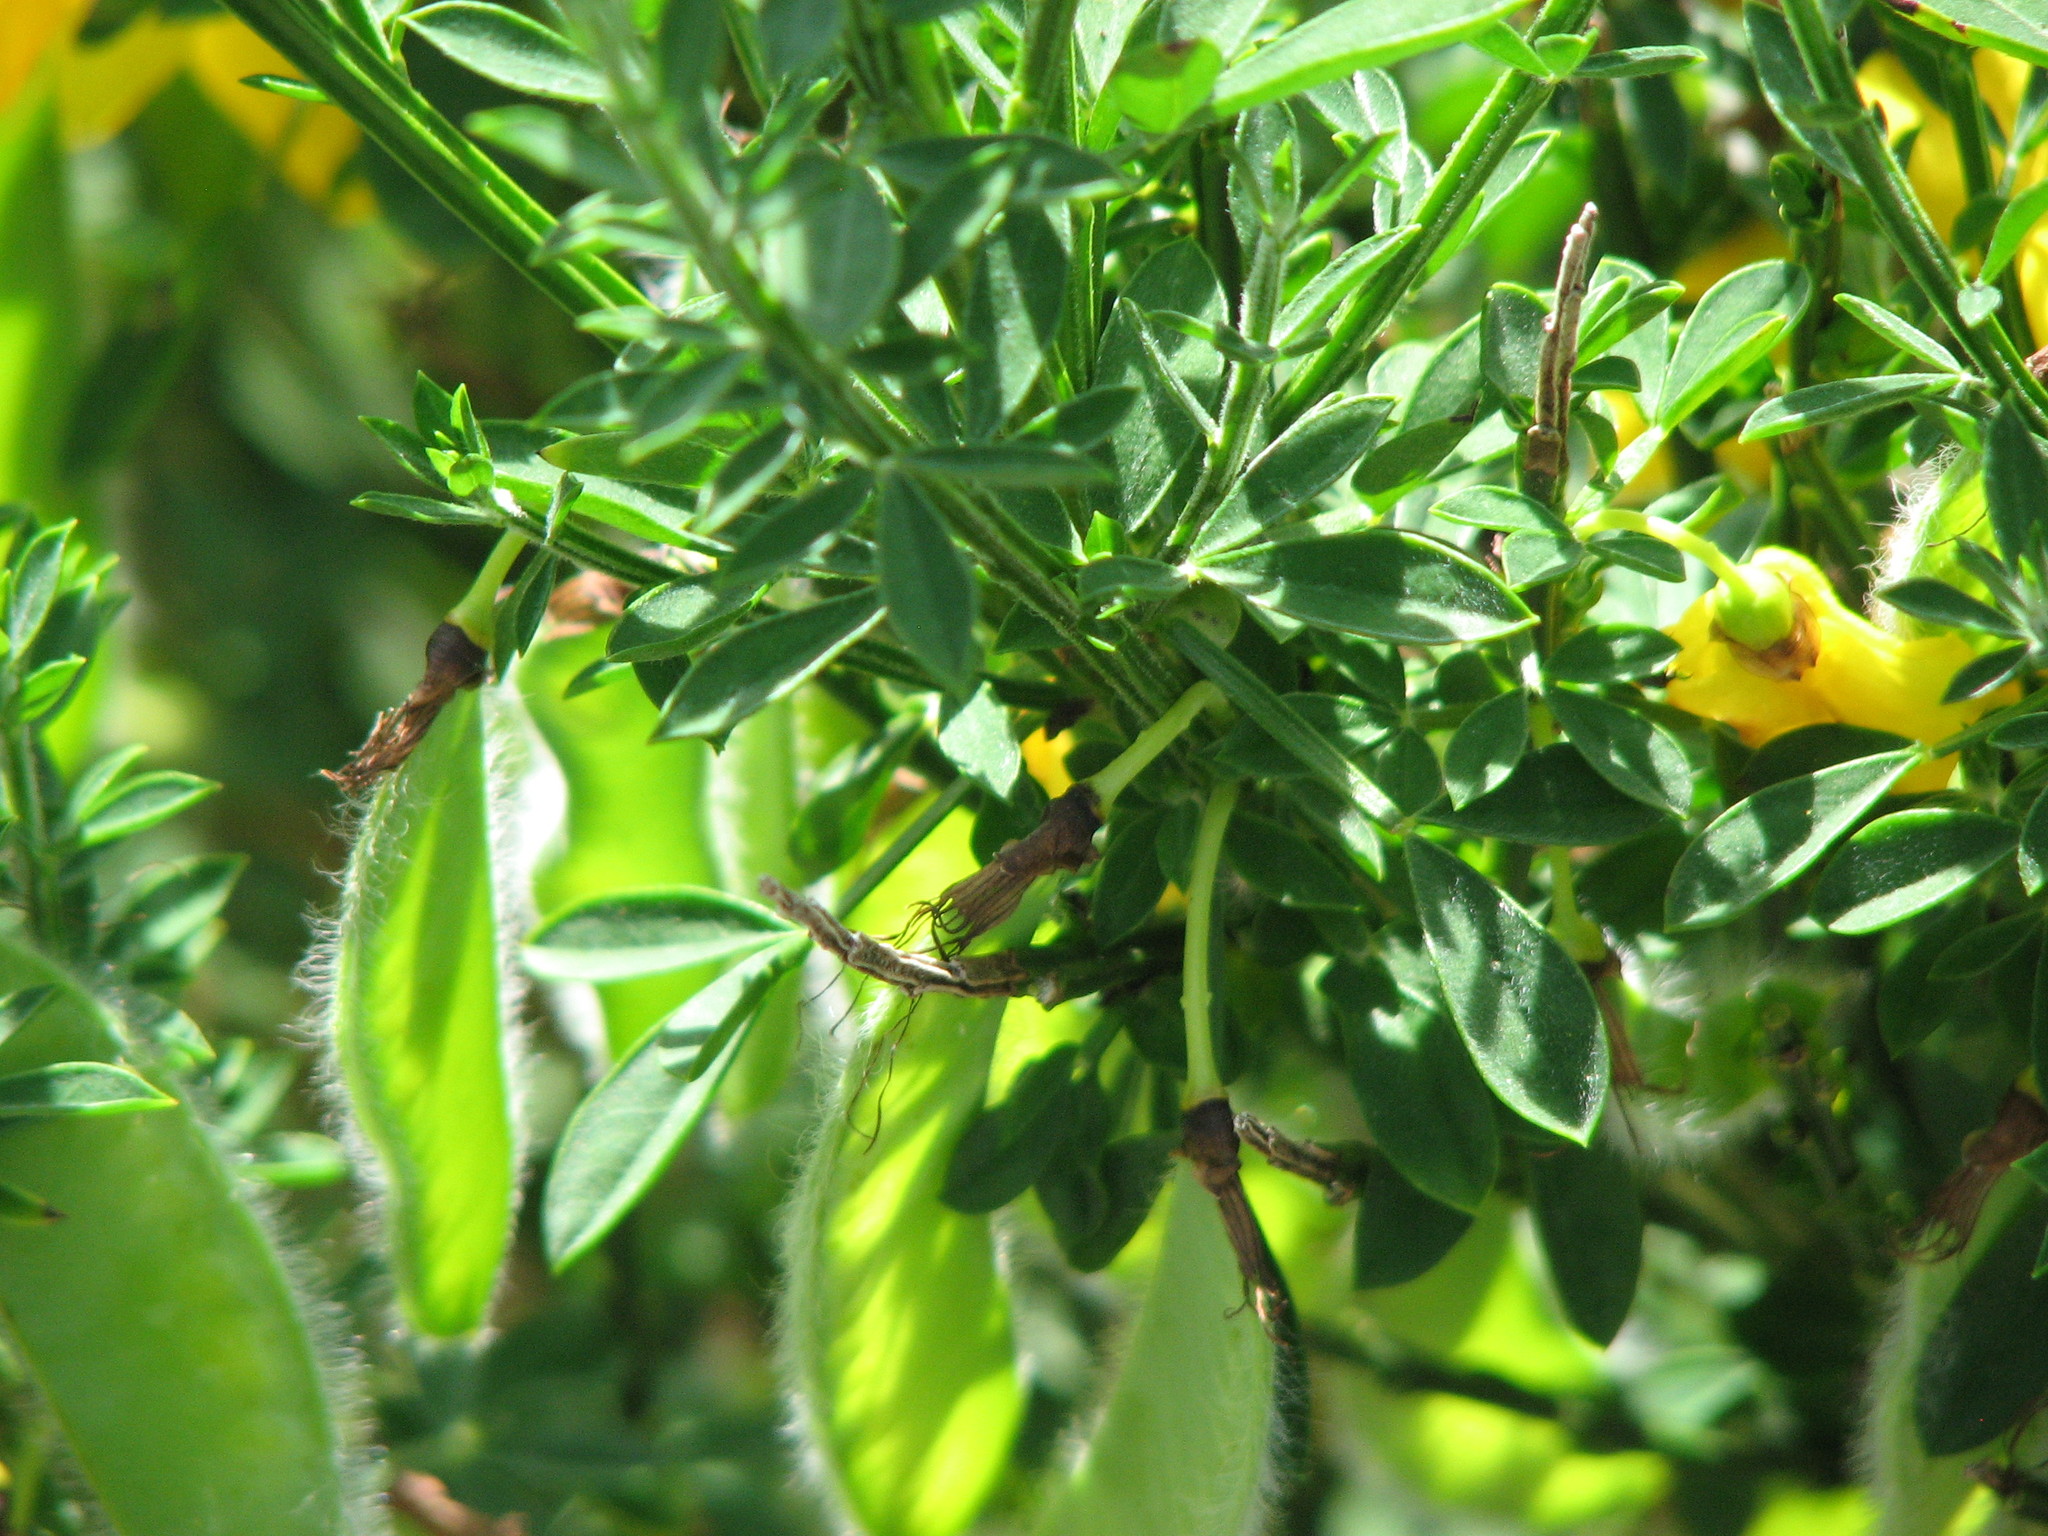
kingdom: Plantae
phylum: Tracheophyta
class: Magnoliopsida
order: Fabales
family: Fabaceae
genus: Cytisus
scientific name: Cytisus scoparius
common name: Scotch broom
